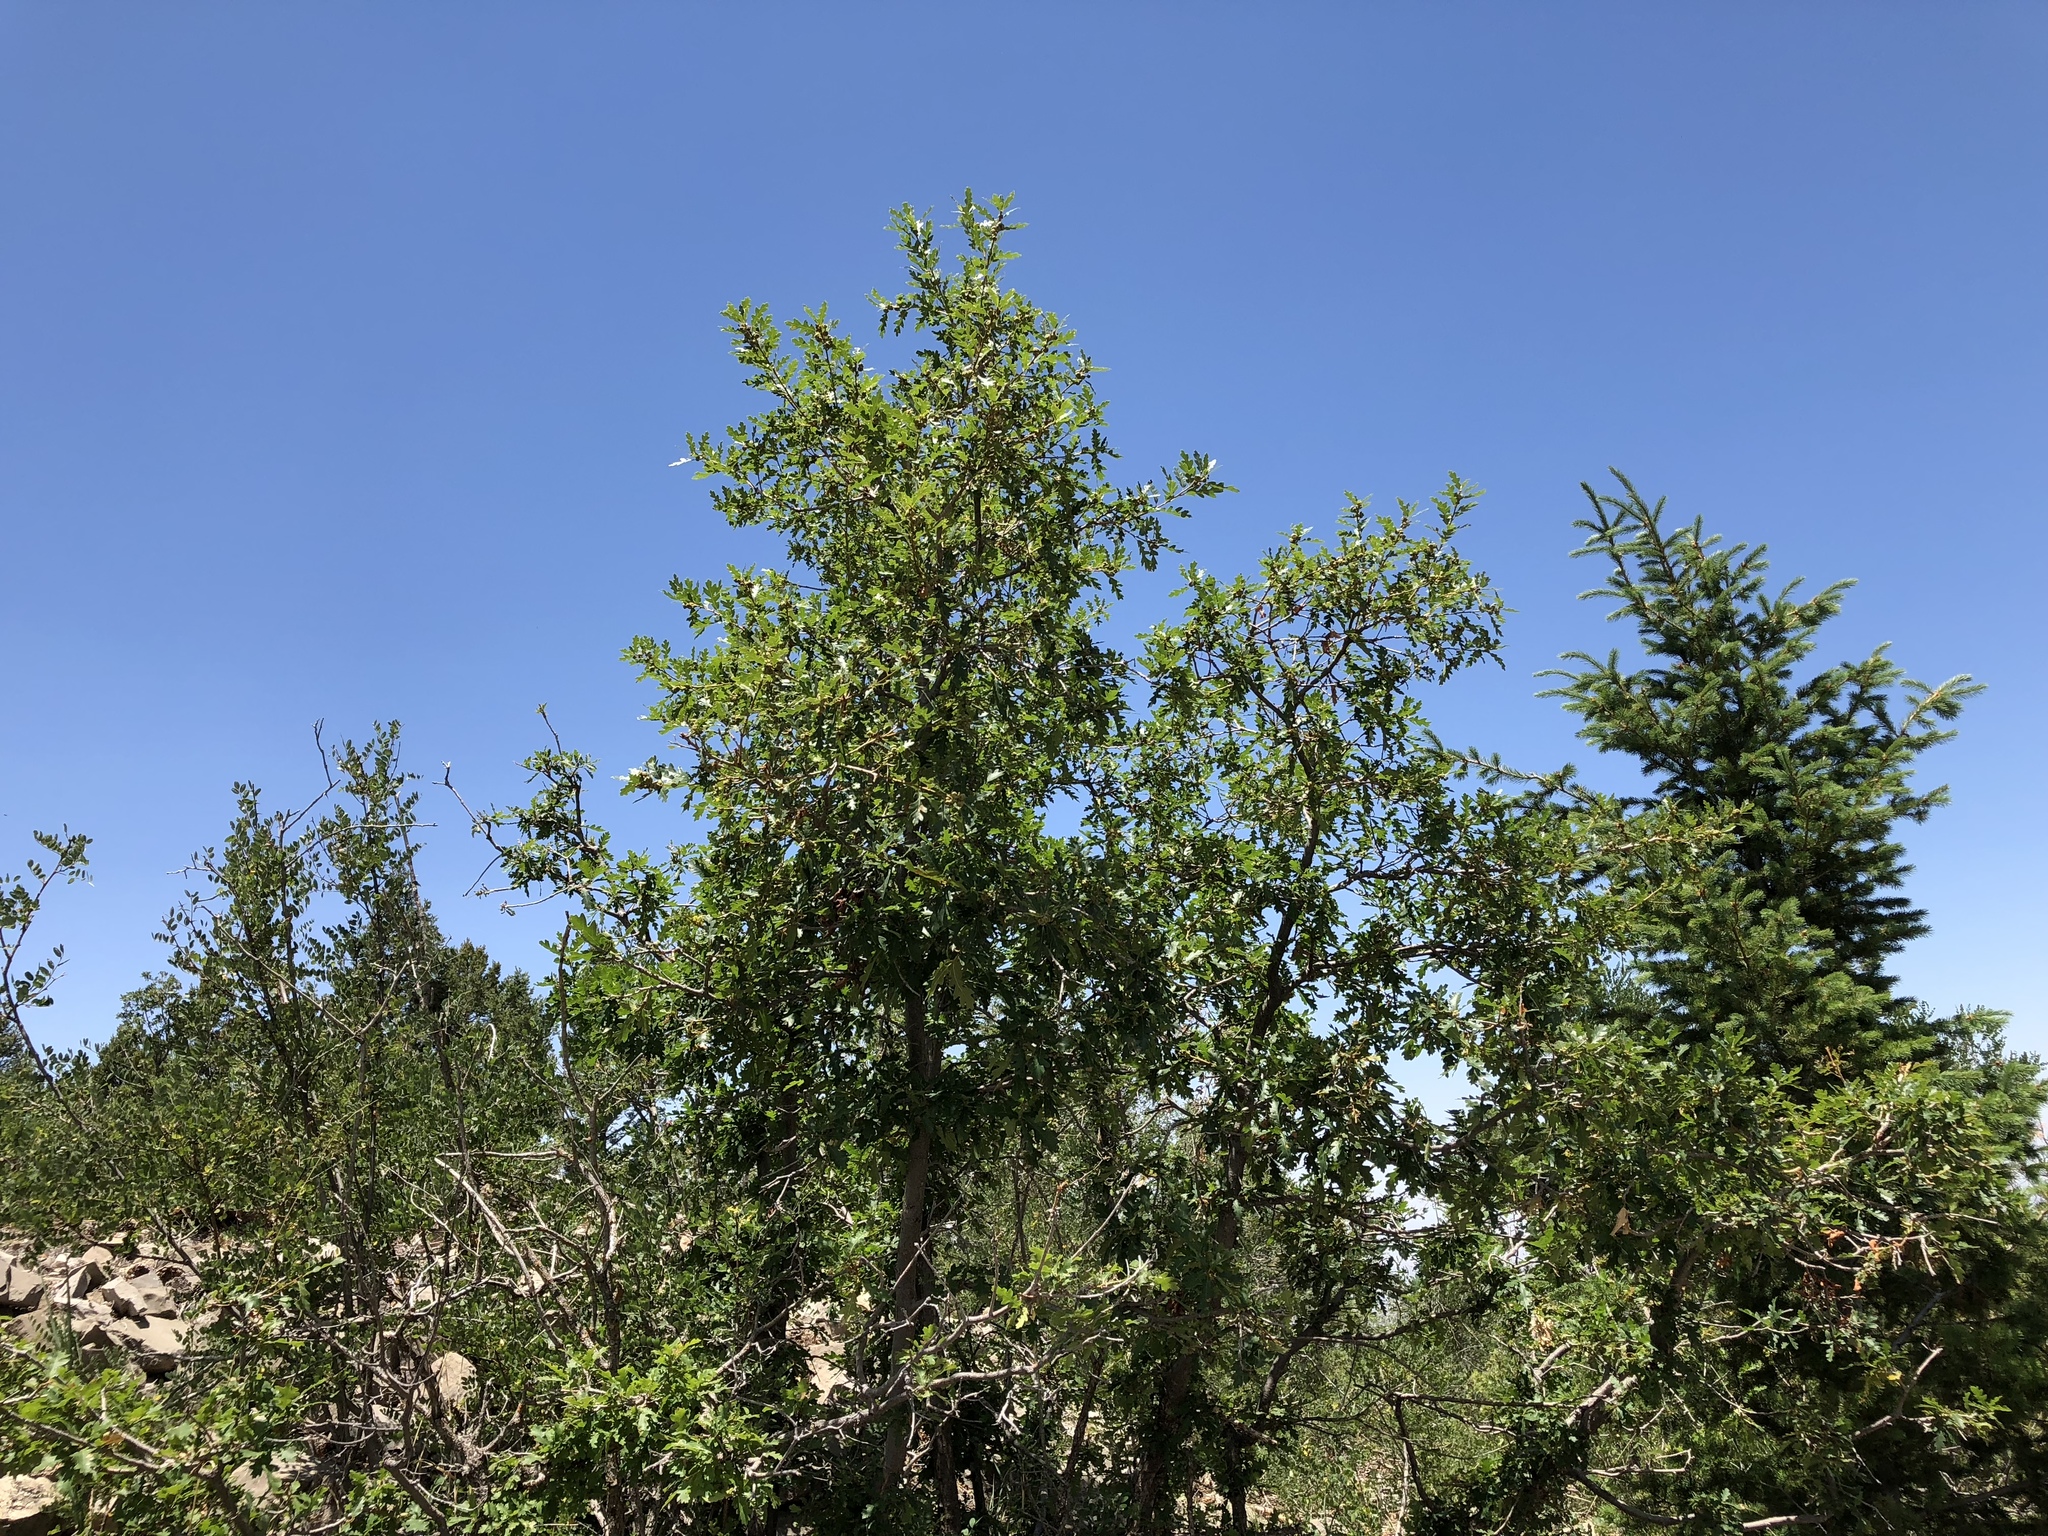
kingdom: Plantae
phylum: Tracheophyta
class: Magnoliopsida
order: Fagales
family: Fagaceae
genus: Quercus
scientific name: Quercus gambelii
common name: Gambel oak
